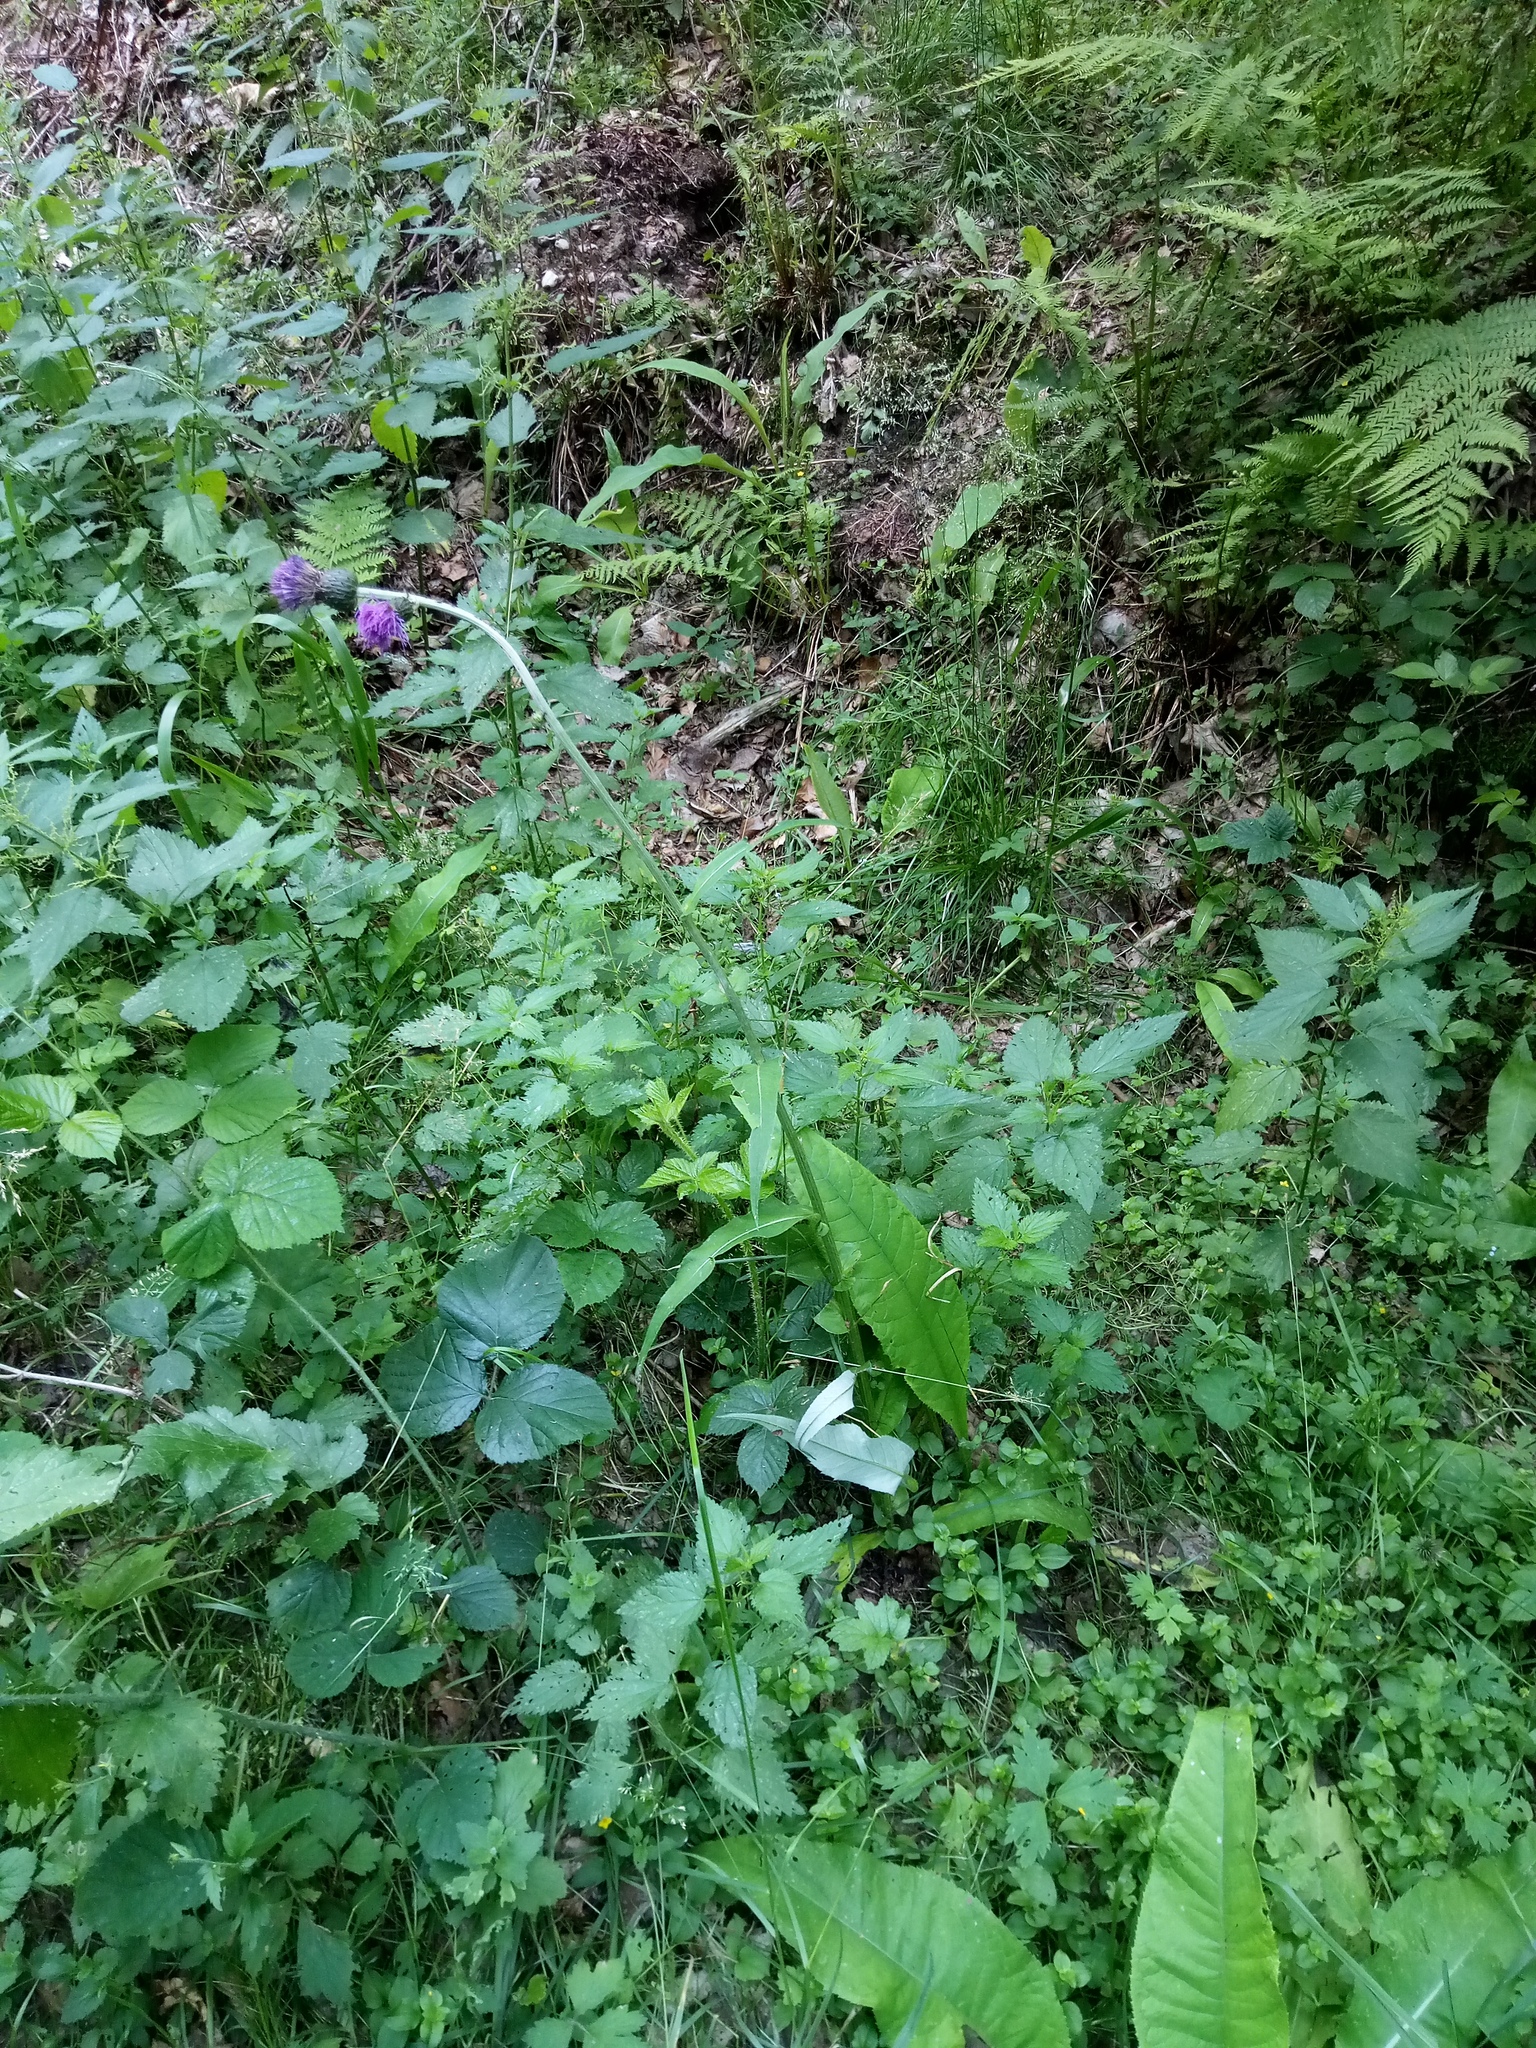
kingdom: Plantae
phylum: Tracheophyta
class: Magnoliopsida
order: Asterales
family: Asteraceae
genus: Cirsium
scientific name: Cirsium heterophyllum
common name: Melancholy thistle
